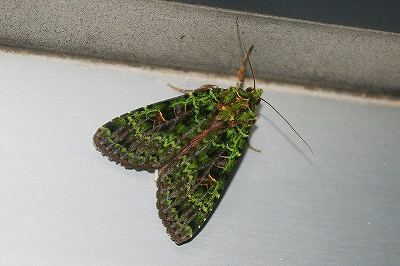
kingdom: Animalia
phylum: Arthropoda
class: Insecta
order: Lepidoptera
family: Noctuidae
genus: Anaplectoides
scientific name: Anaplectoides virens
